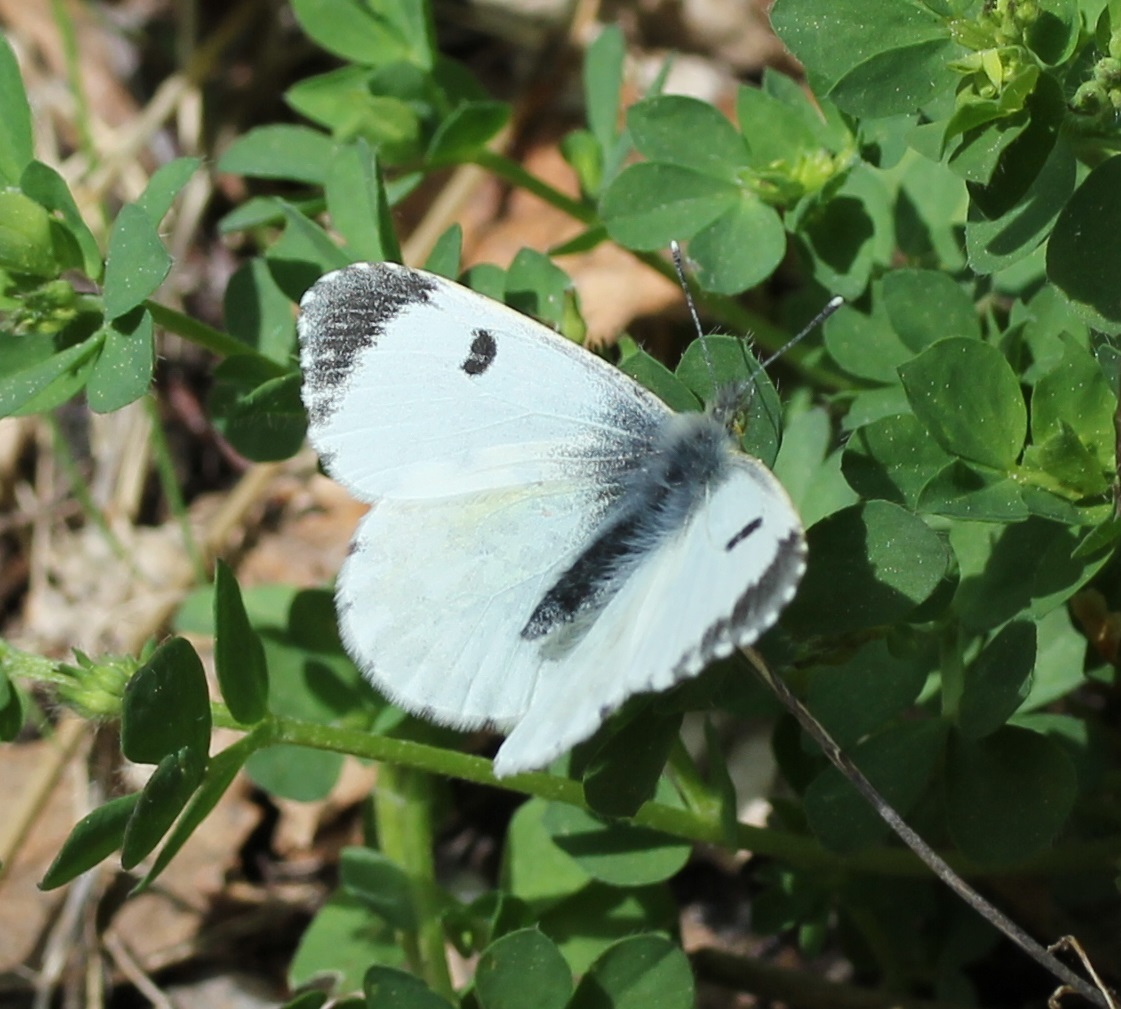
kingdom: Animalia
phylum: Arthropoda
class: Insecta
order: Lepidoptera
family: Pieridae
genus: Anthocharis
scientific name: Anthocharis cardamines
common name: Orange-tip
